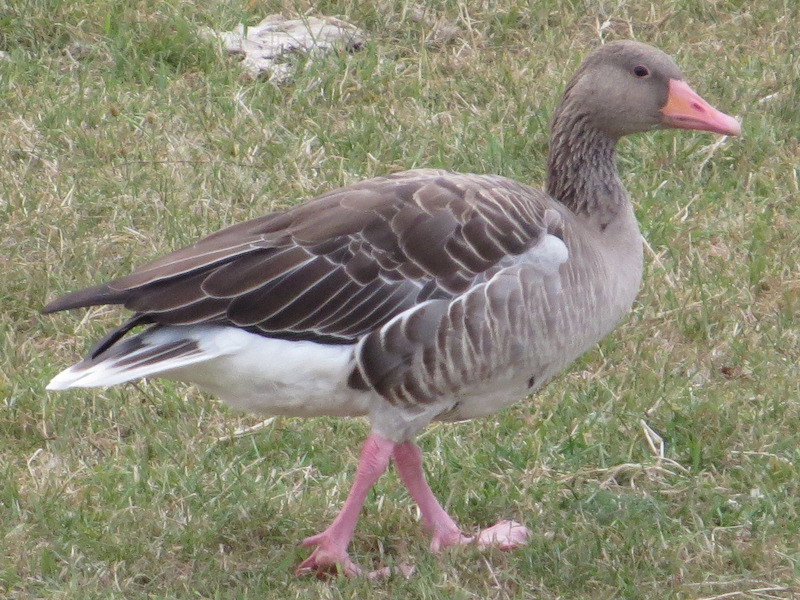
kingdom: Animalia
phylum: Chordata
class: Aves
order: Anseriformes
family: Anatidae
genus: Anser
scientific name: Anser anser
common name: Greylag goose
